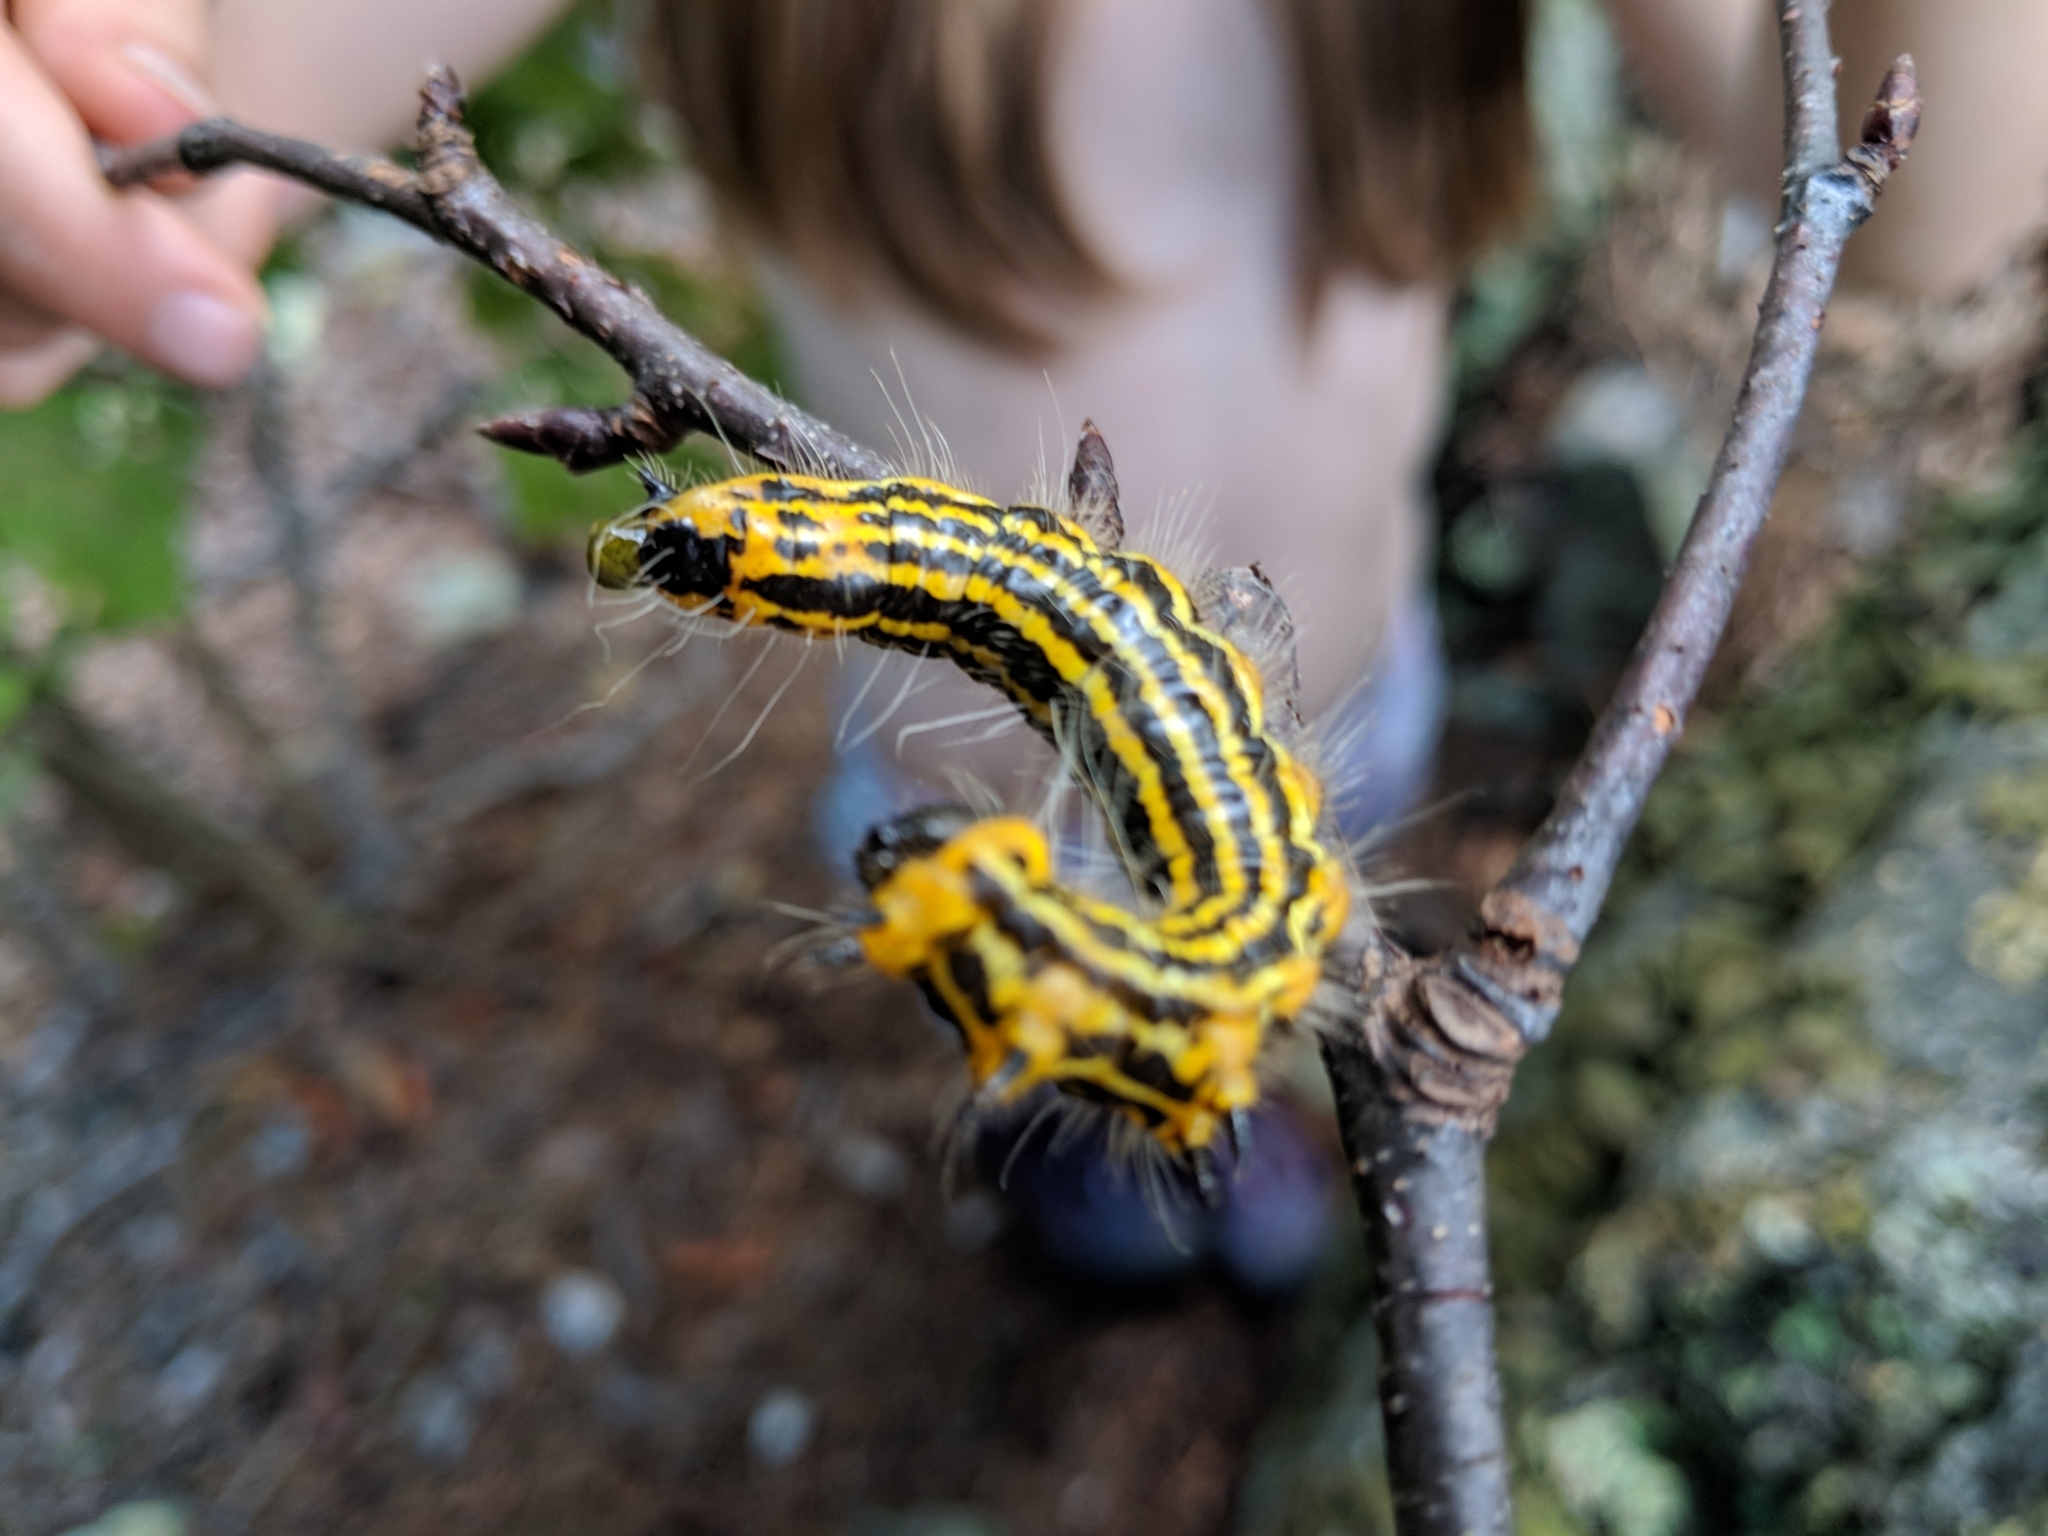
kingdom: Animalia
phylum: Arthropoda
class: Insecta
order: Lepidoptera
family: Notodontidae
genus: Datana
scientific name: Datana drexelii
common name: Drexel's datana
